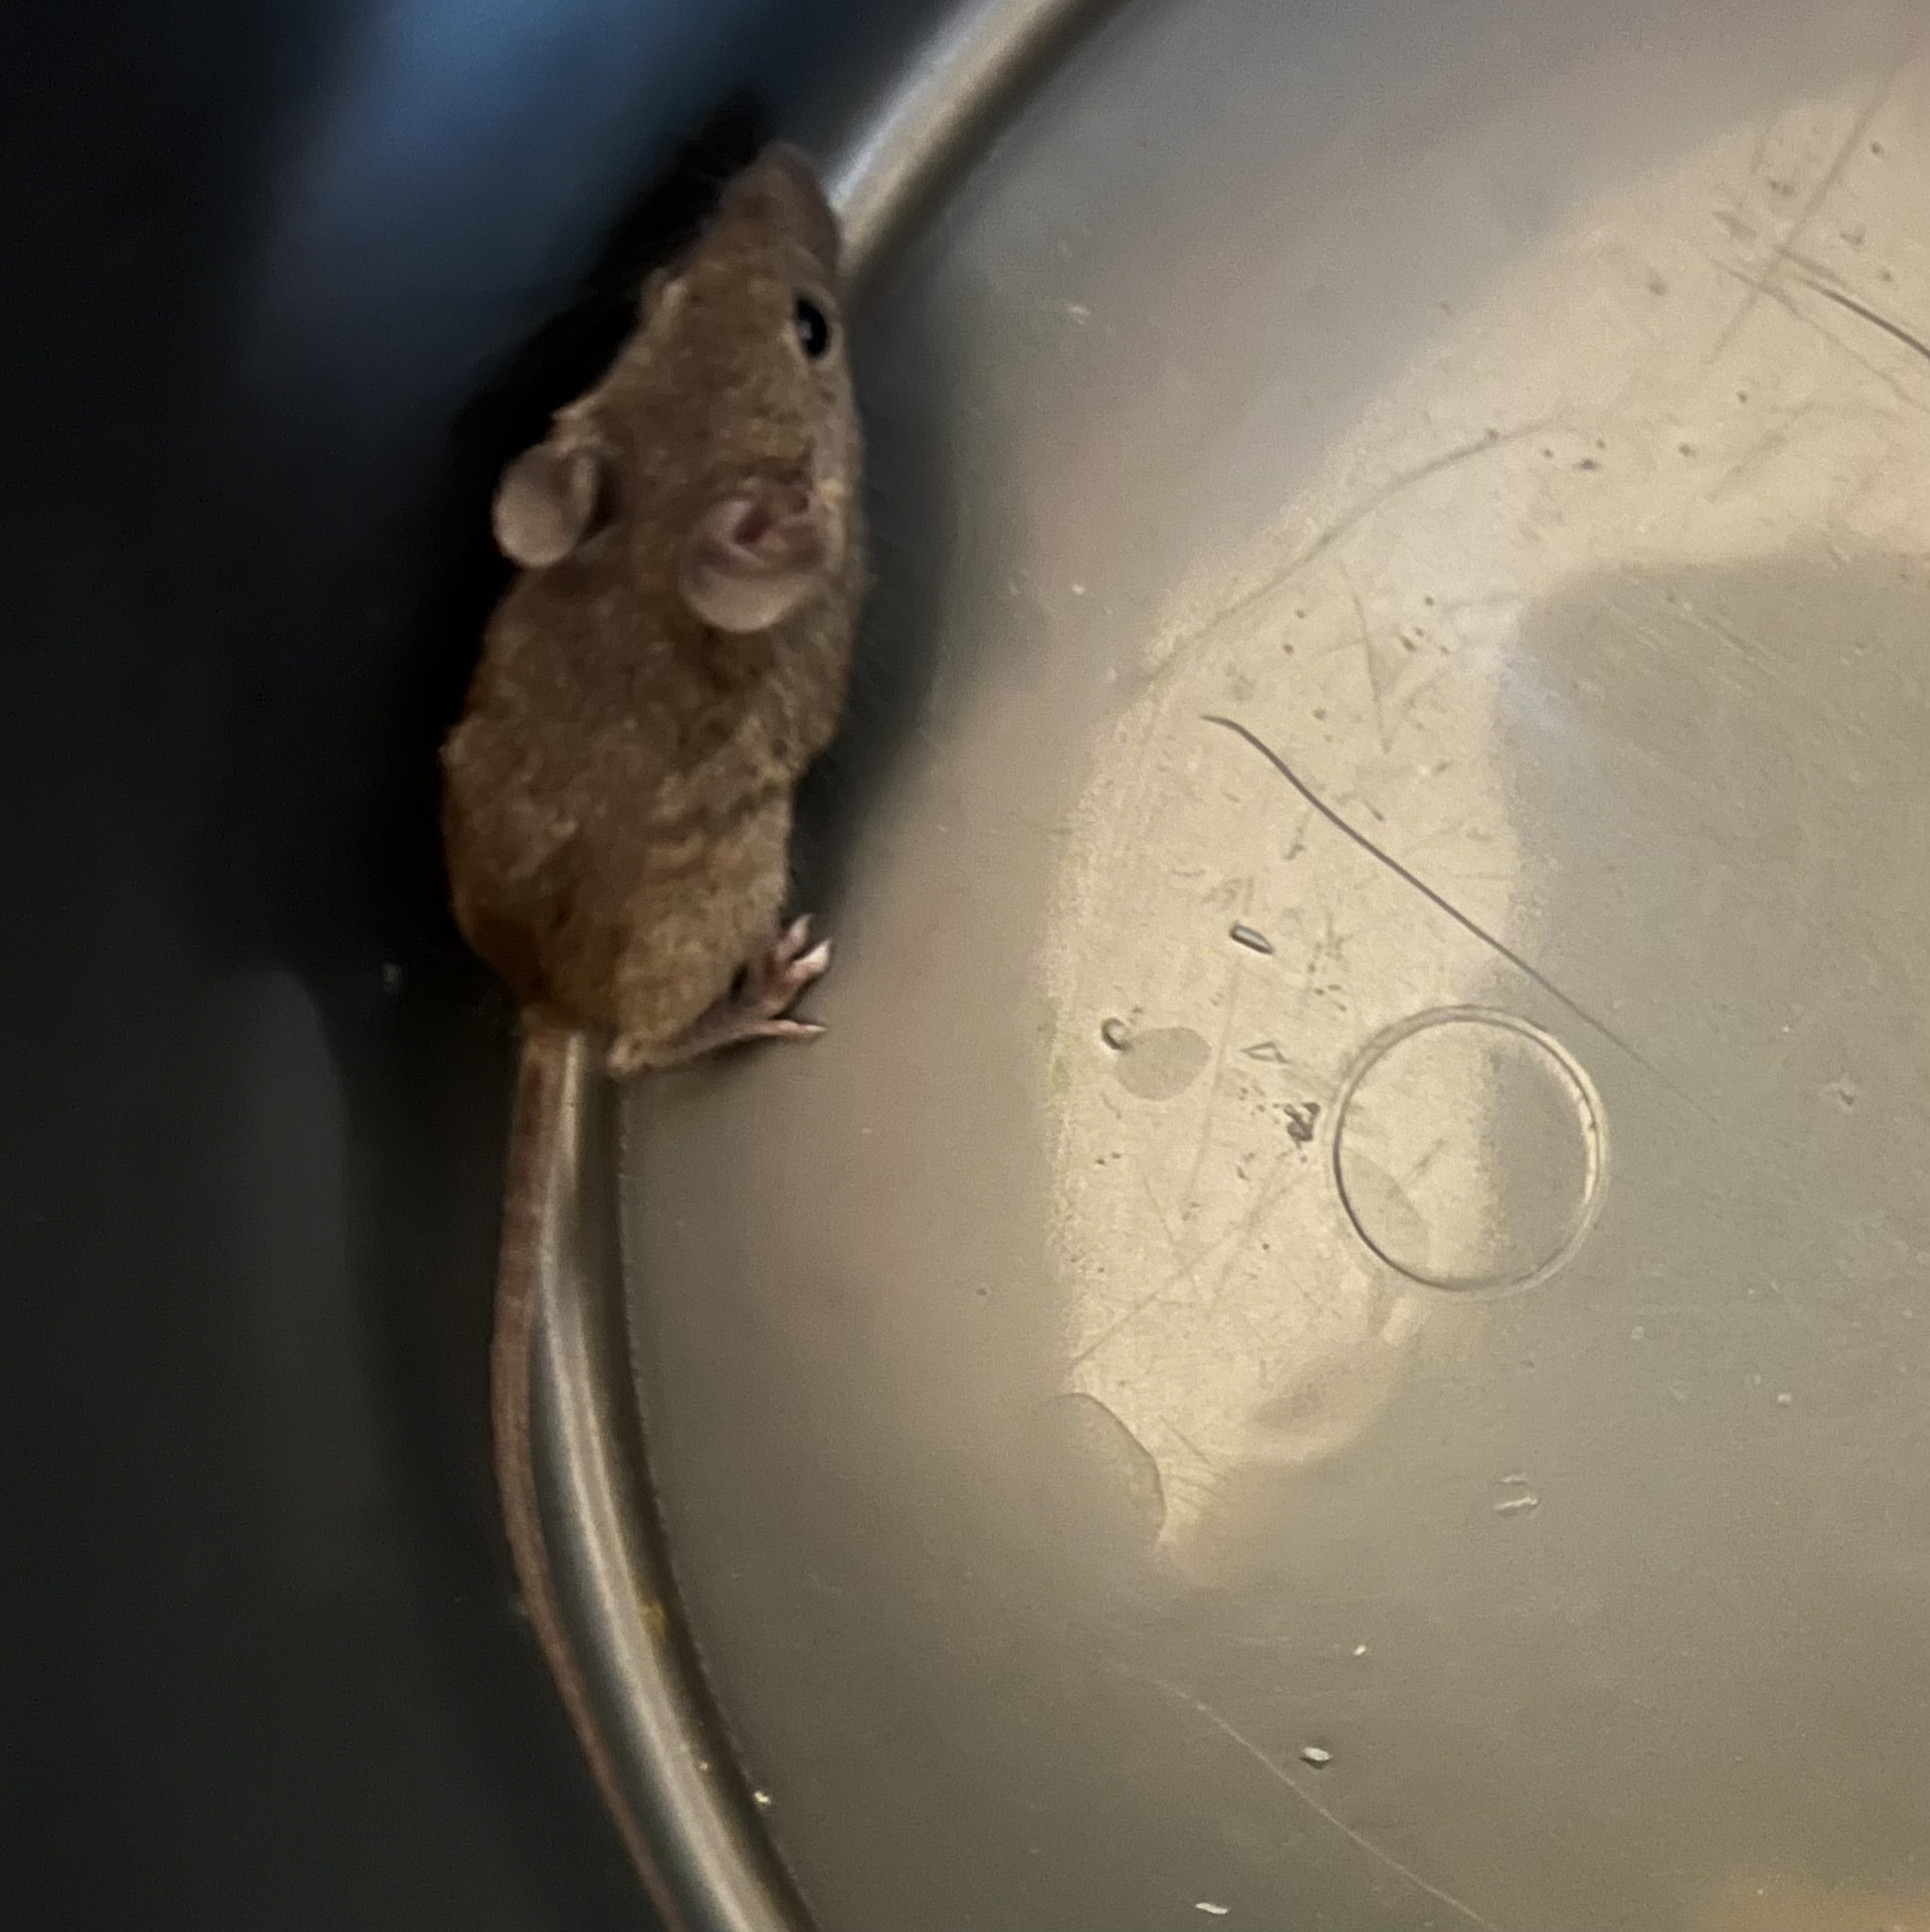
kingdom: Animalia
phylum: Chordata
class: Mammalia
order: Rodentia
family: Muridae
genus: Mus
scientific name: Mus musculus
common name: House mouse
